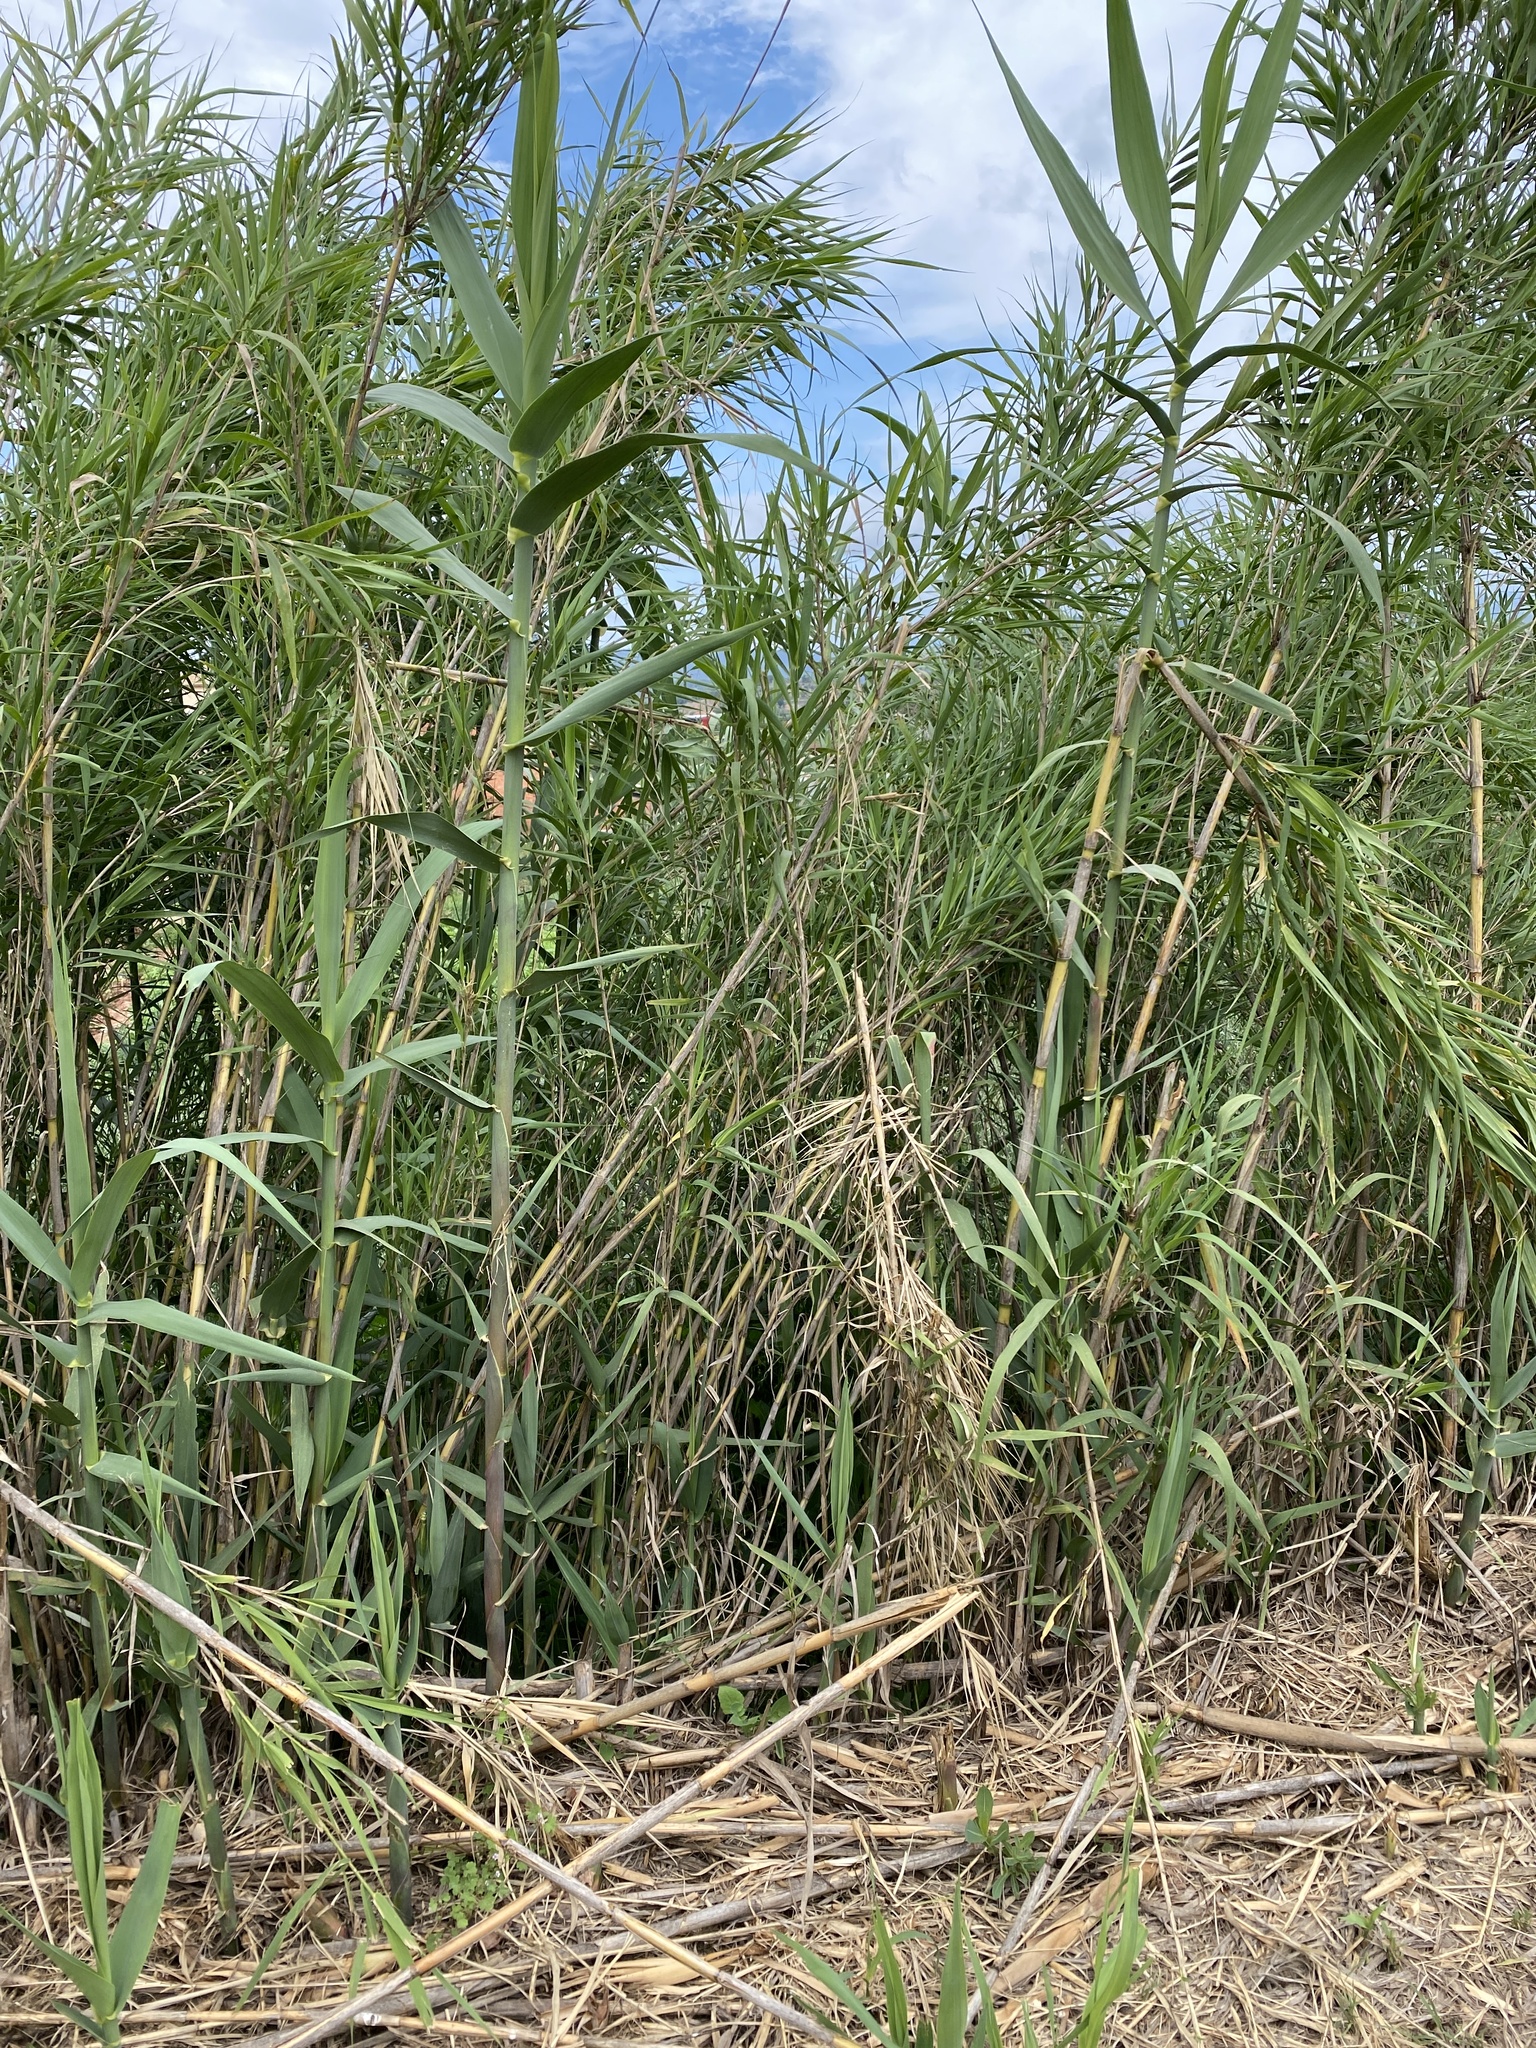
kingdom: Plantae
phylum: Tracheophyta
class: Liliopsida
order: Poales
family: Poaceae
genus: Arundo
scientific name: Arundo donax
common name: Giant reed
